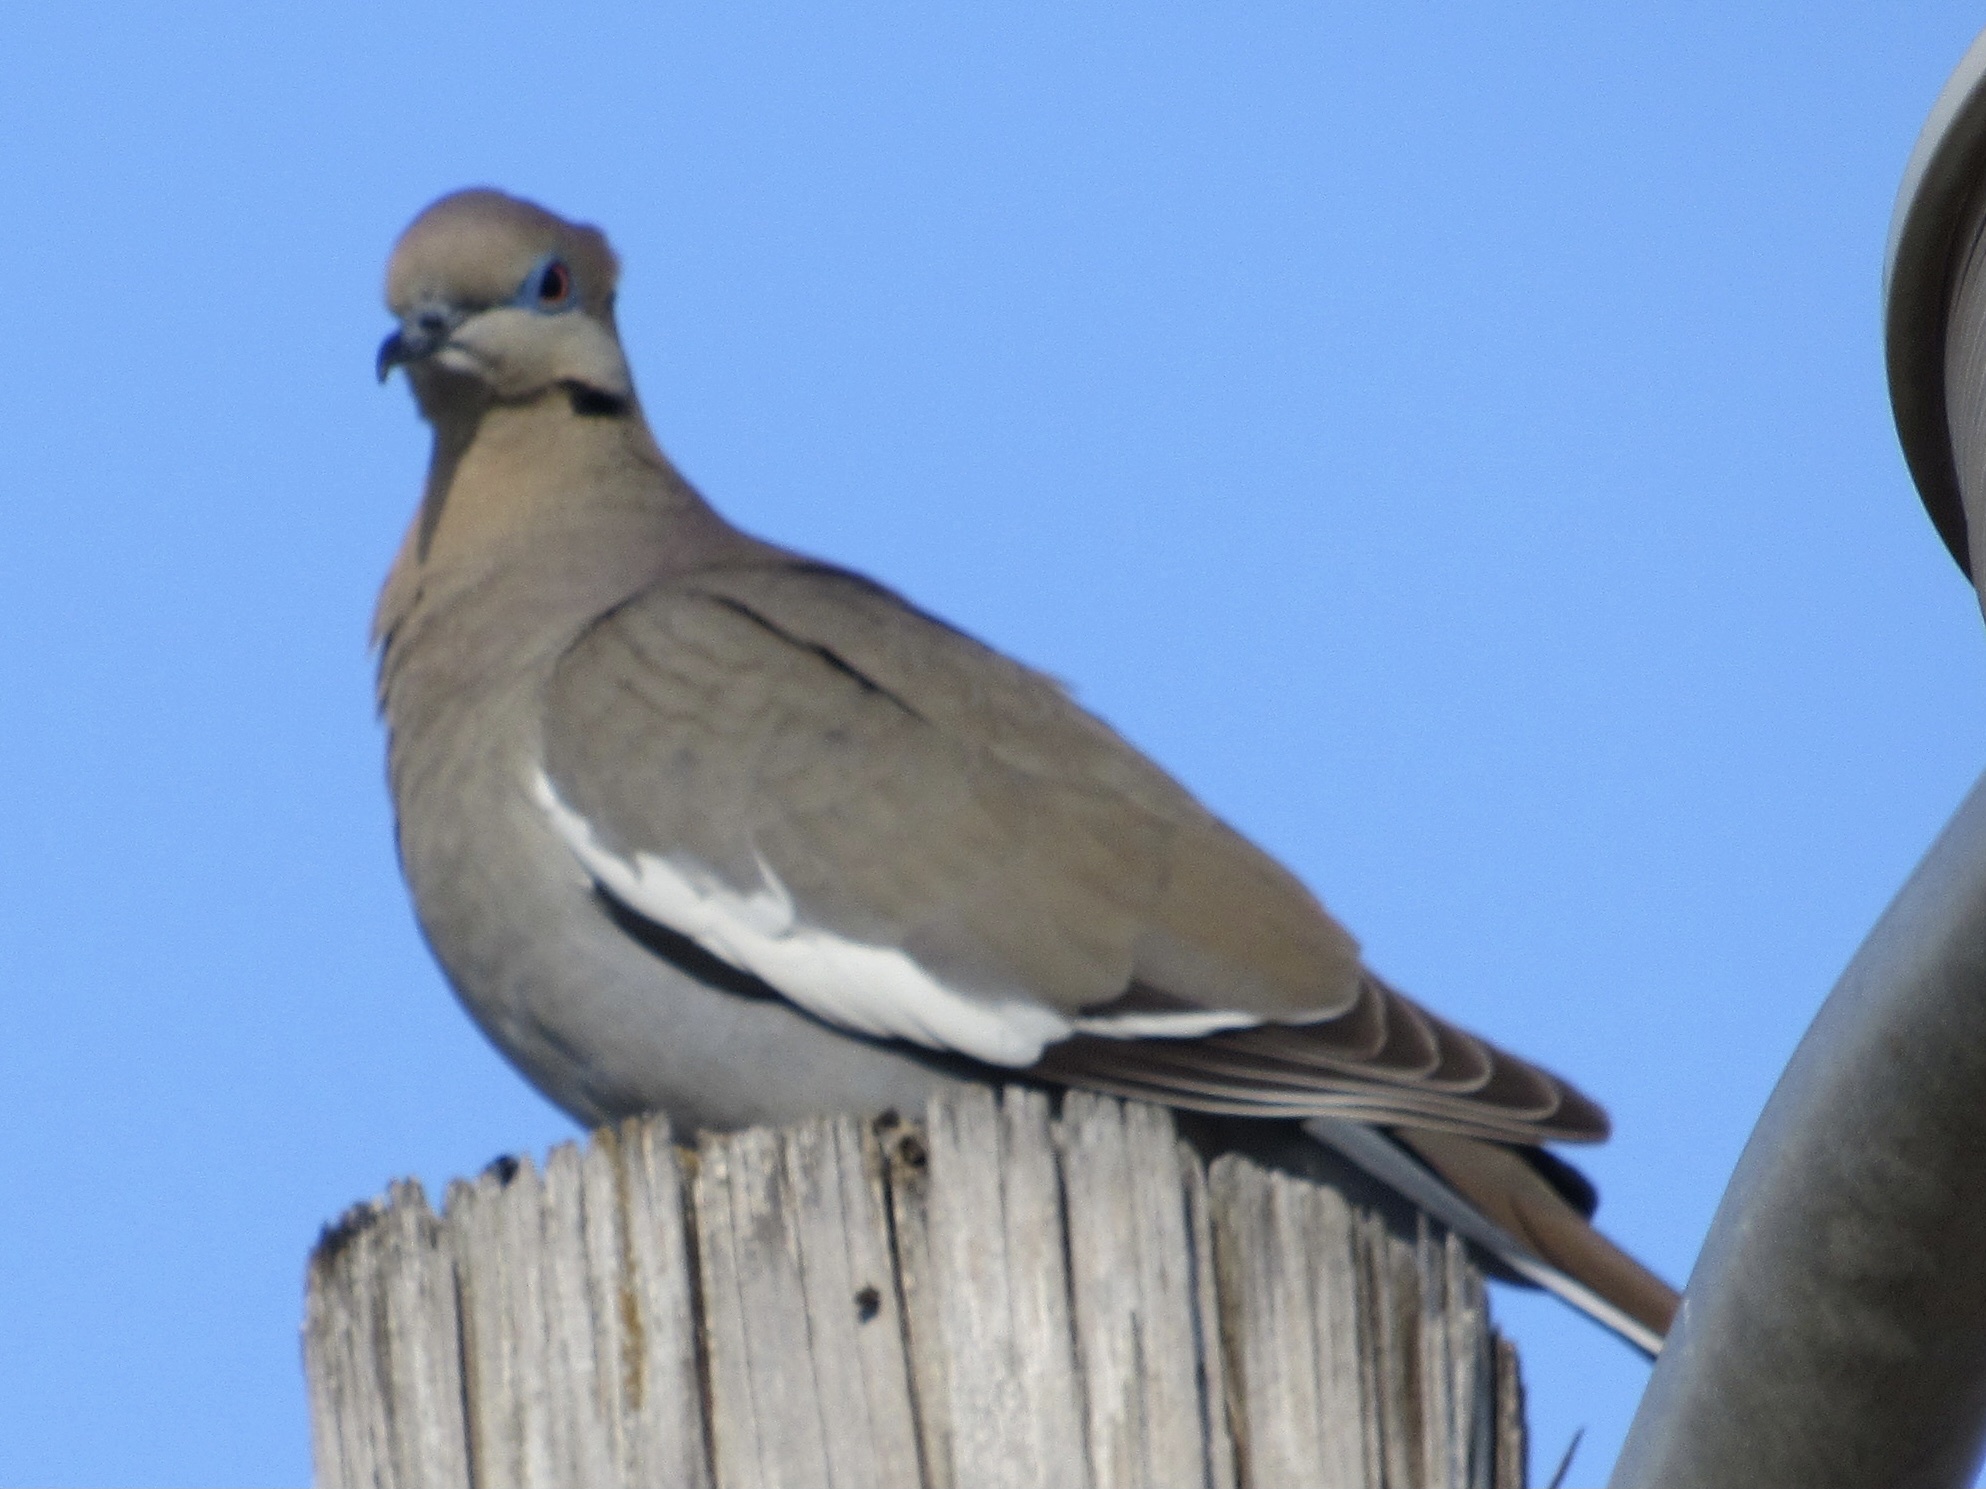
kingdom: Animalia
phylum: Chordata
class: Aves
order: Columbiformes
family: Columbidae
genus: Zenaida
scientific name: Zenaida asiatica
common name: White-winged dove
